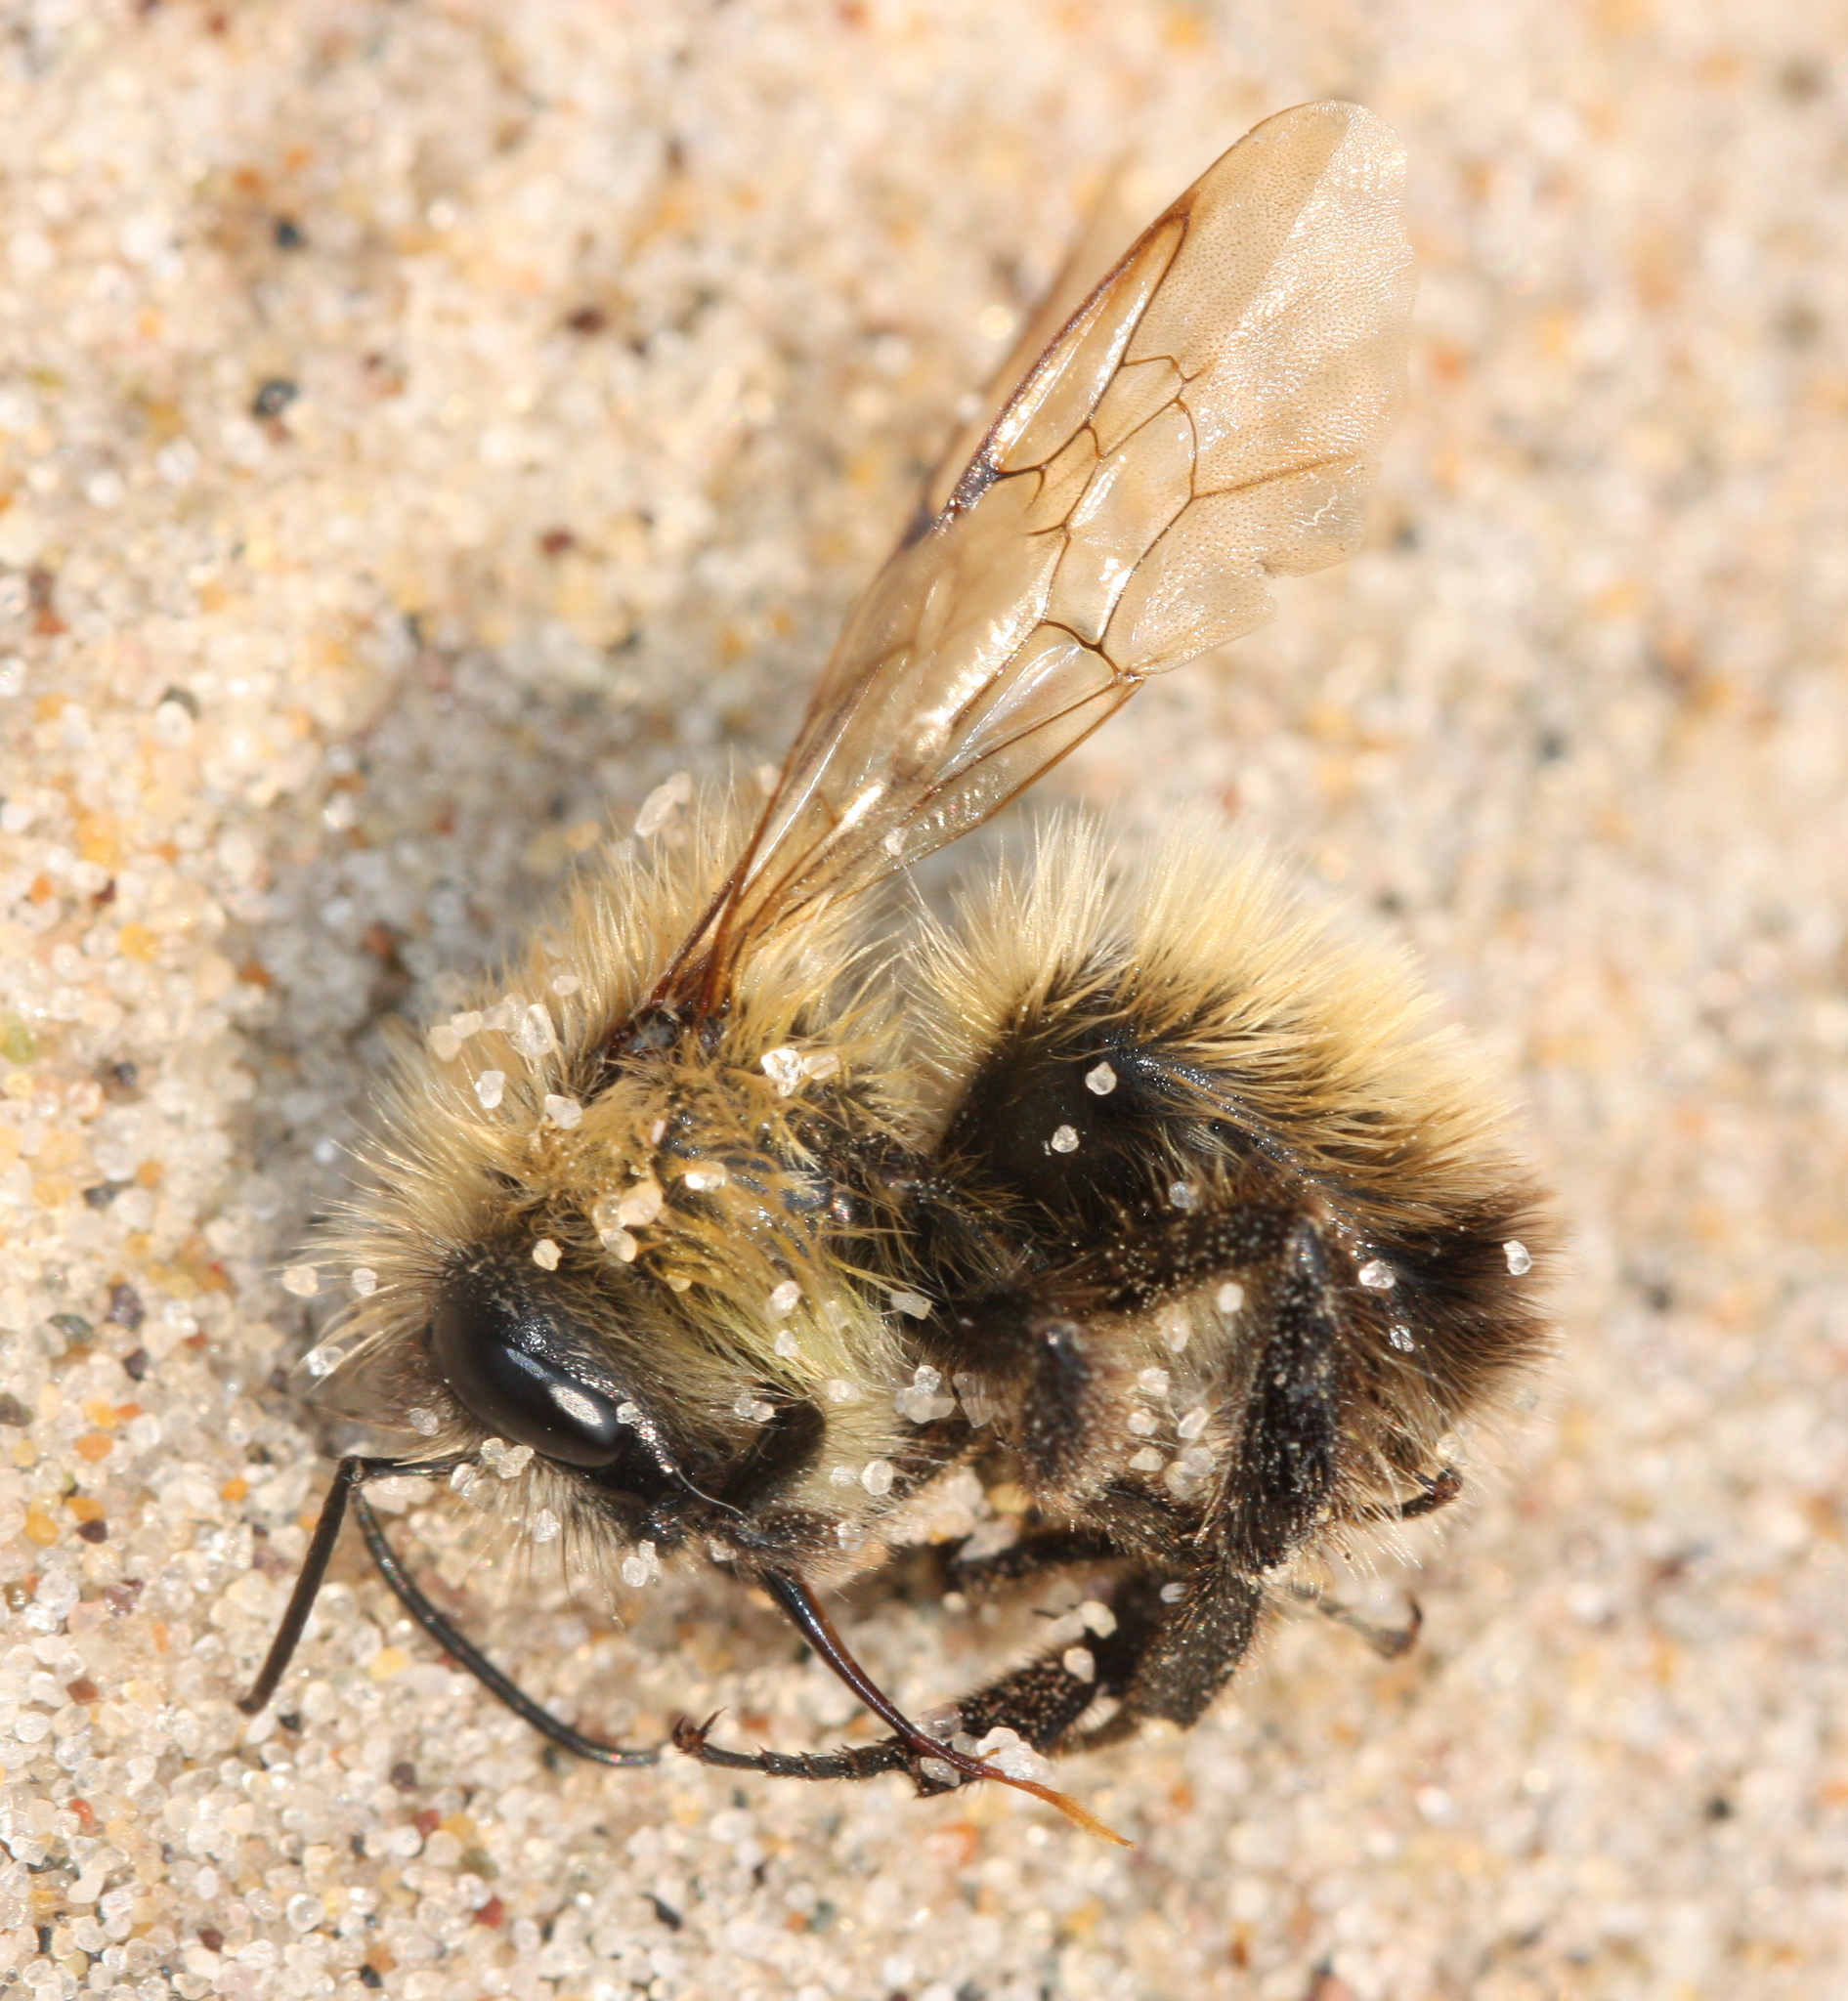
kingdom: Animalia
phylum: Arthropoda
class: Insecta
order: Hymenoptera
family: Apidae
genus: Bombus
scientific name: Bombus
